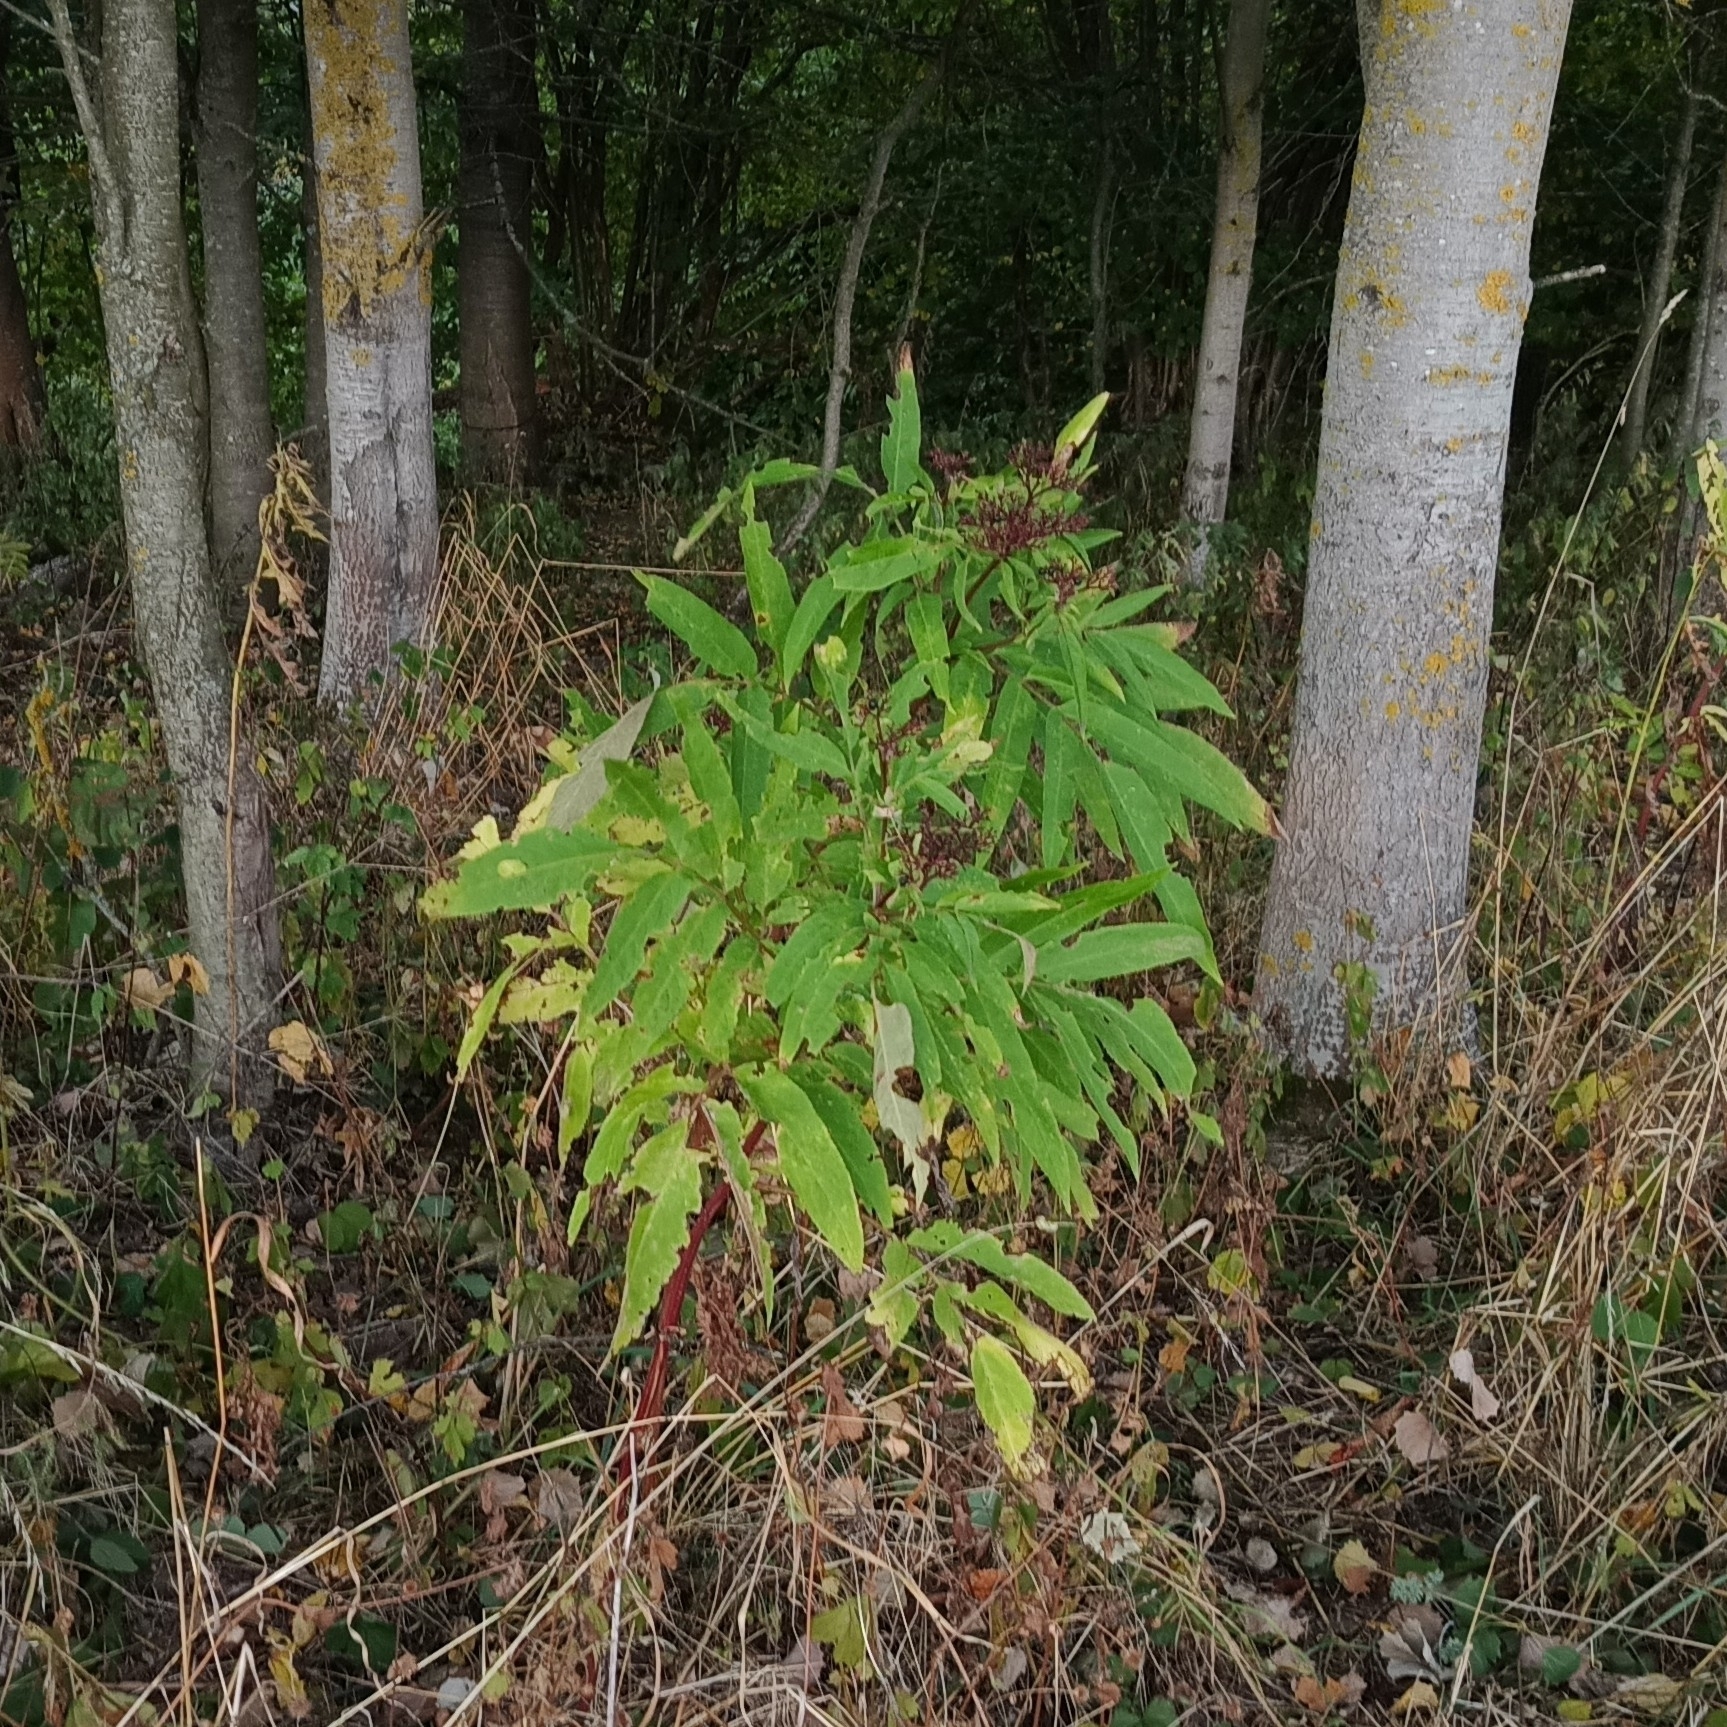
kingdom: Plantae
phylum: Tracheophyta
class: Magnoliopsida
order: Dipsacales
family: Viburnaceae
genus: Sambucus
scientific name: Sambucus ebulus
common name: Dwarf elder
